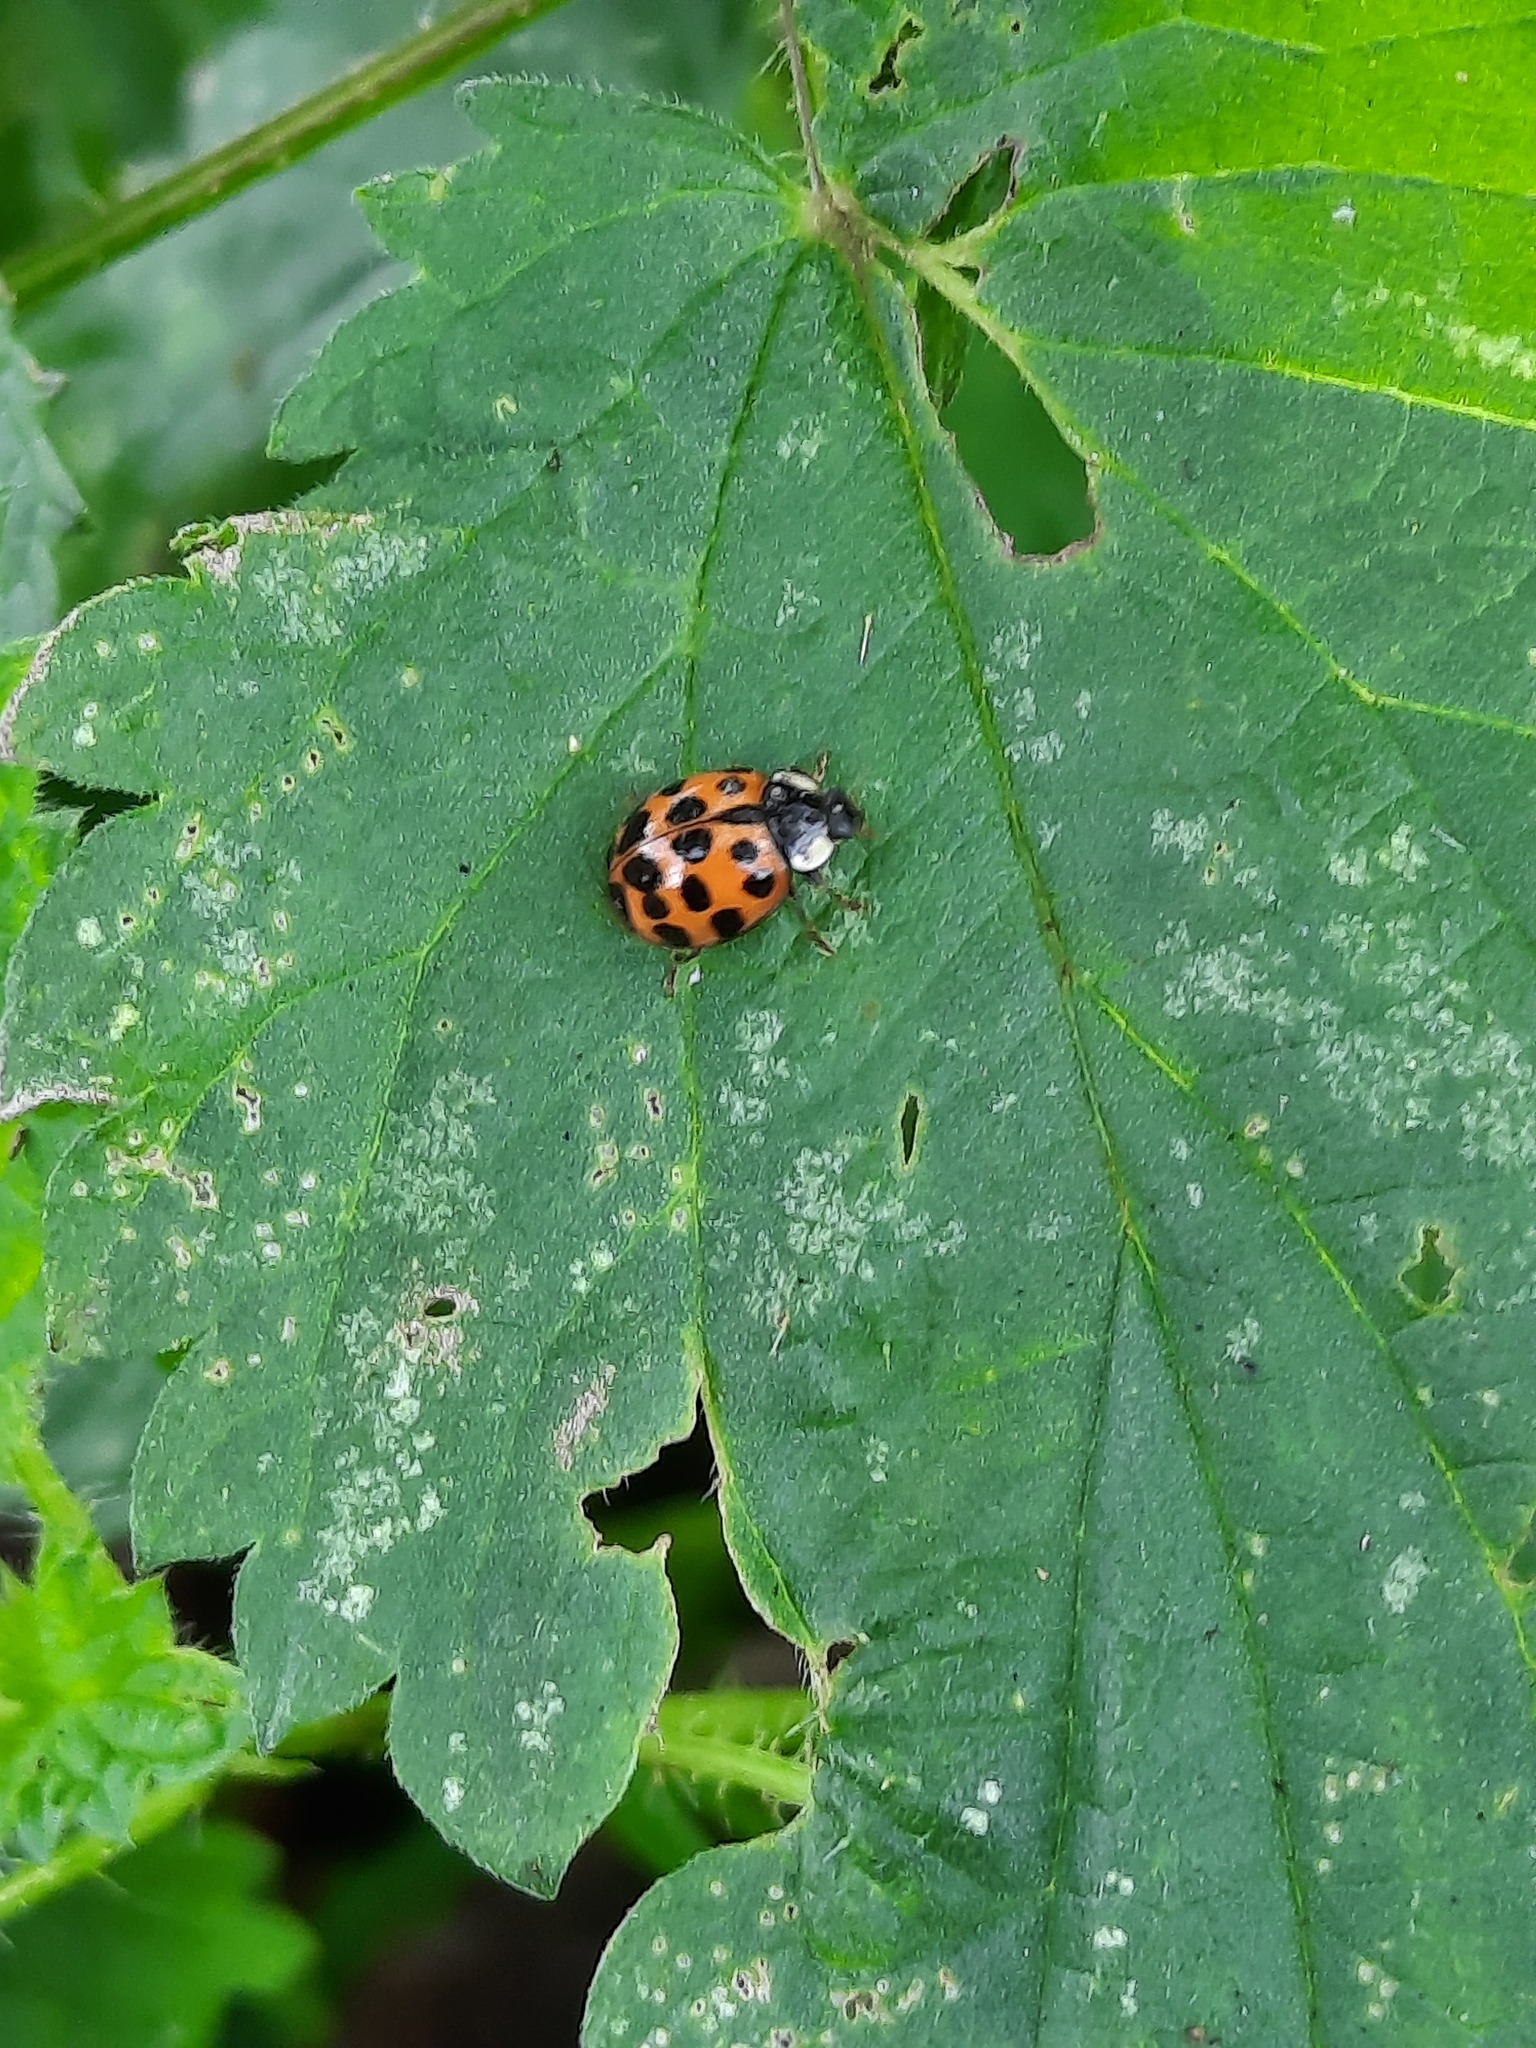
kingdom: Animalia
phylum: Arthropoda
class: Insecta
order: Coleoptera
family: Coccinellidae
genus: Harmonia
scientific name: Harmonia axyridis
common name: Harlequin ladybird
